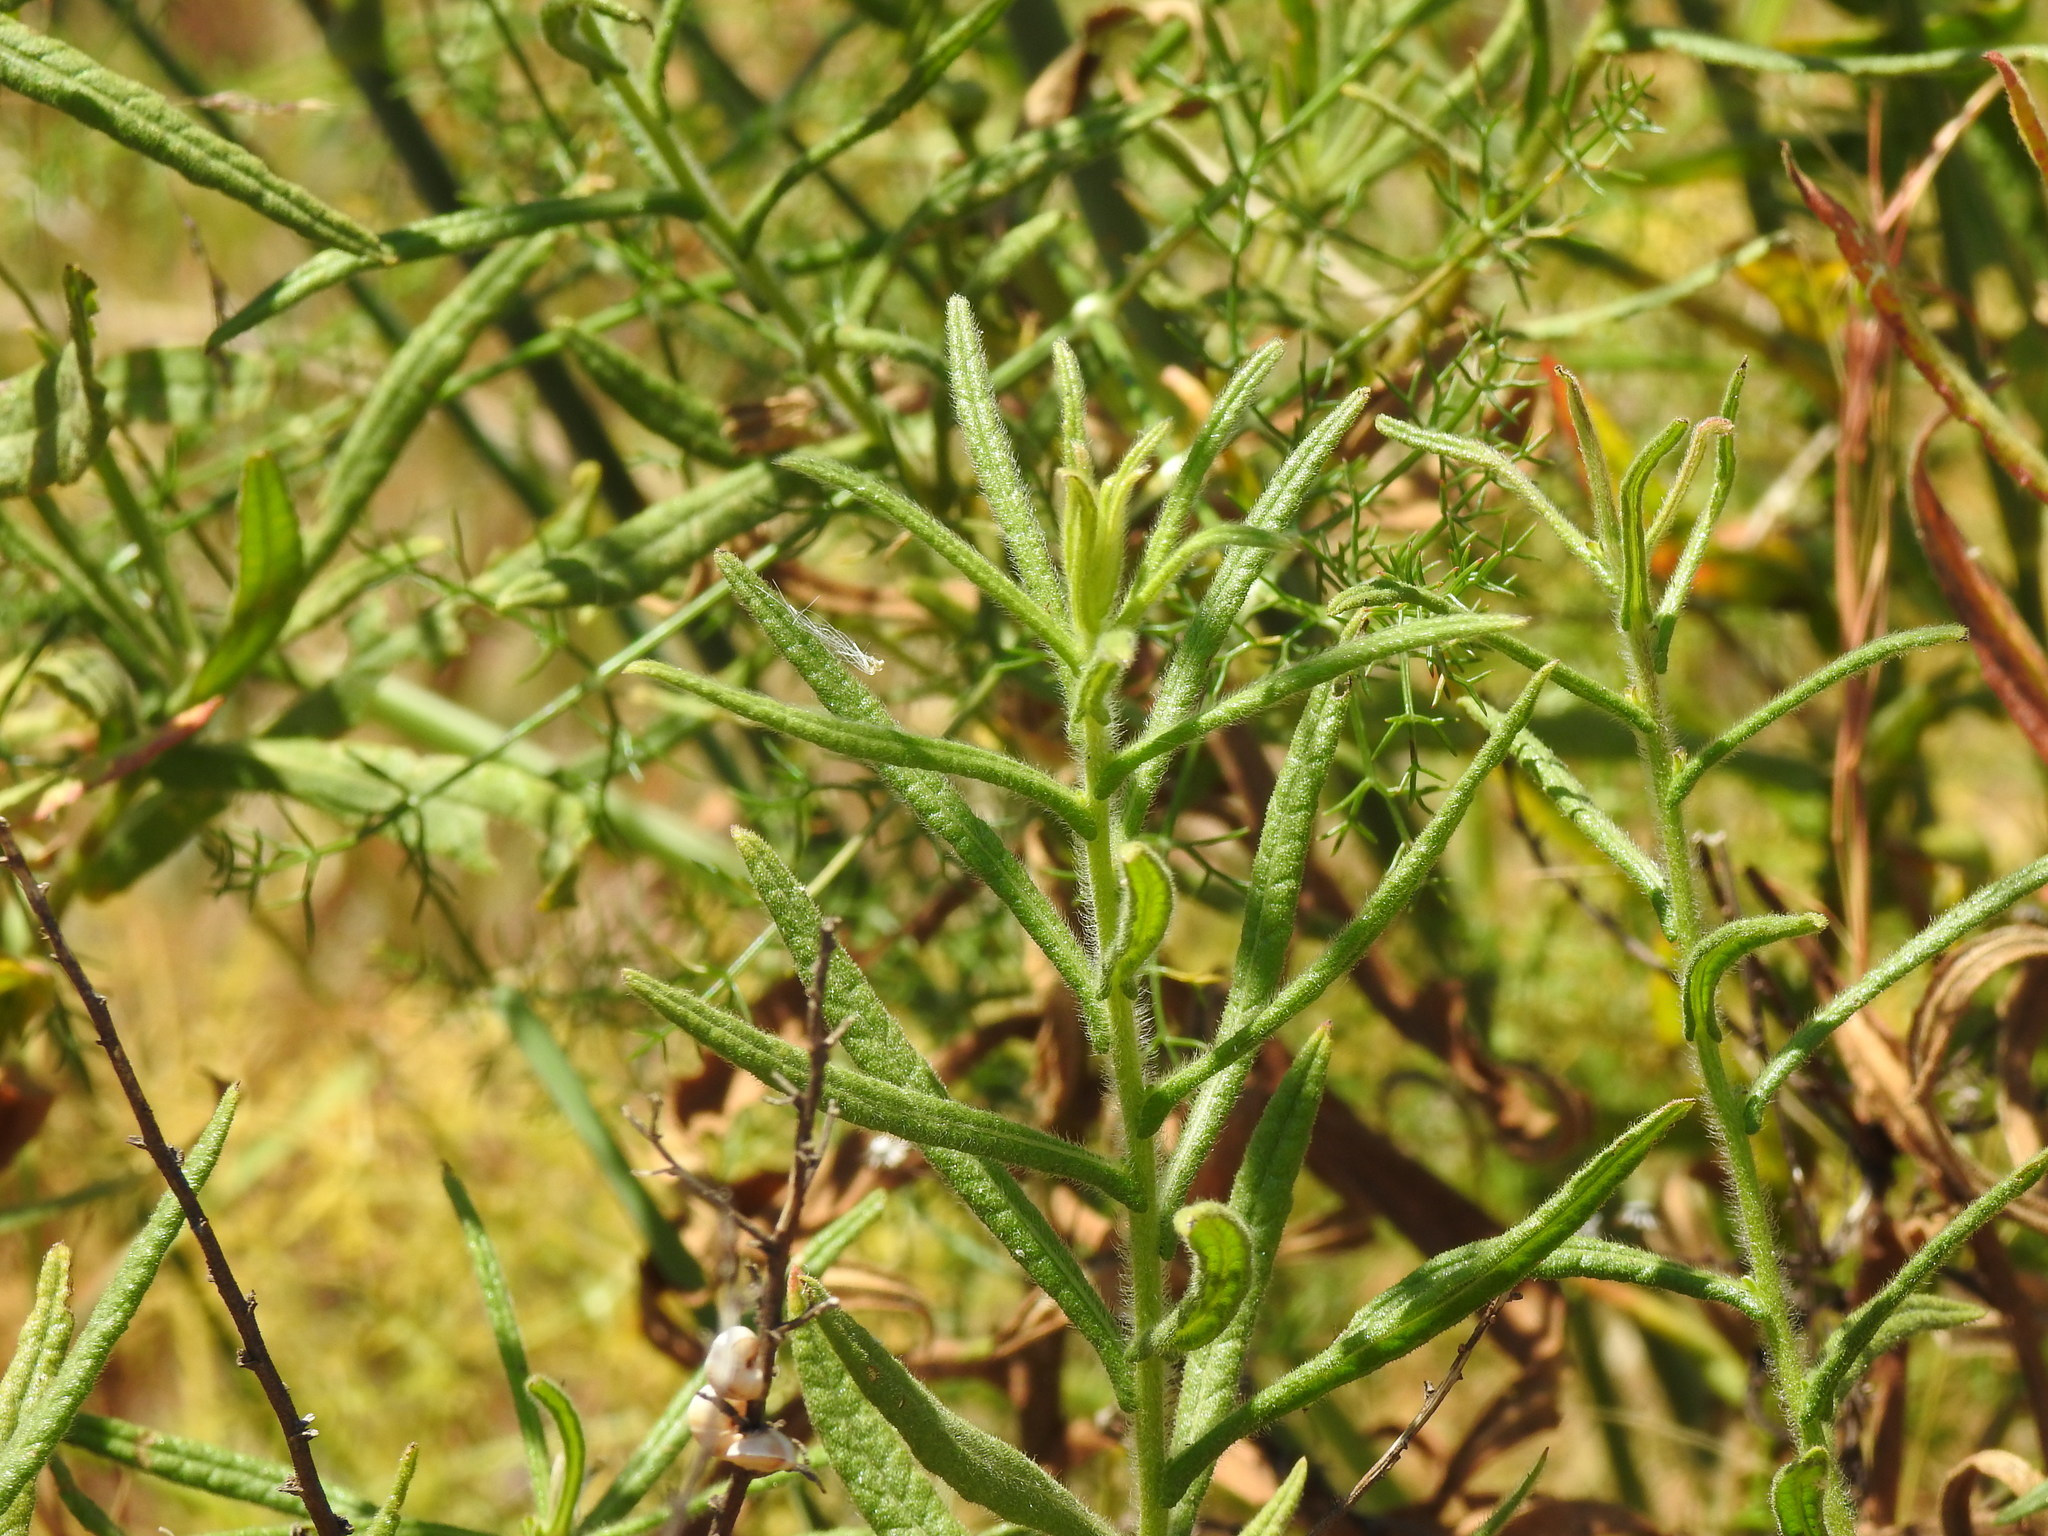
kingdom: Plantae
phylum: Tracheophyta
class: Magnoliopsida
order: Asterales
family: Asteraceae
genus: Dittrichia
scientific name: Dittrichia viscosa
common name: Woody fleabane
